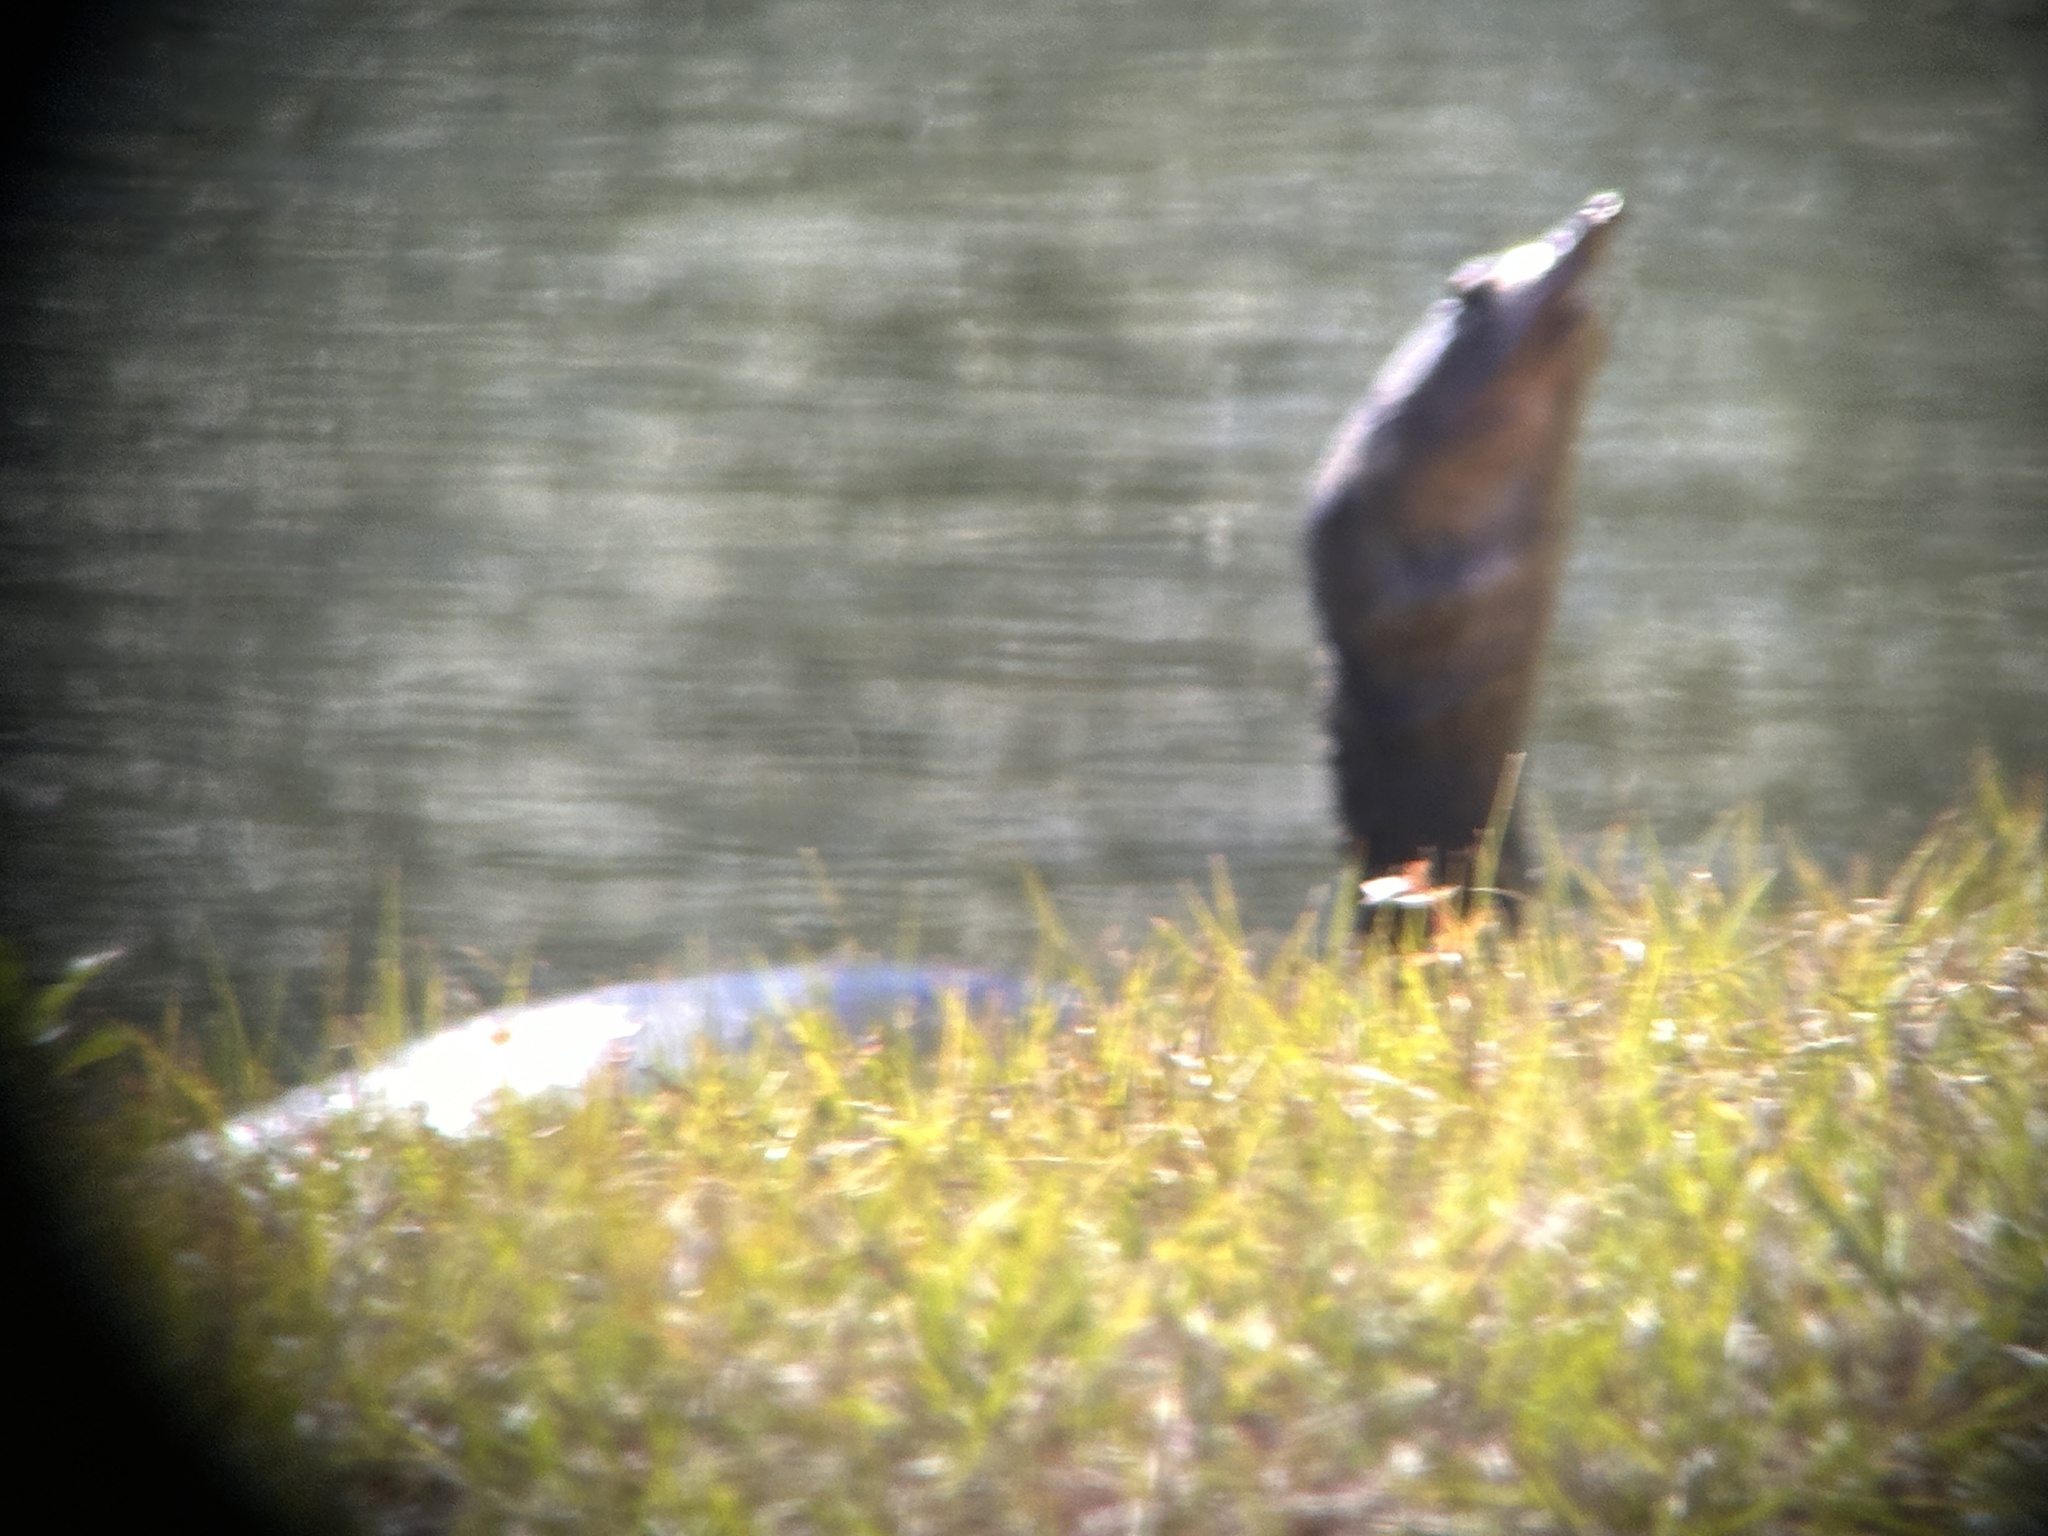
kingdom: Animalia
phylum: Chordata
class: Testudines
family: Trionychidae
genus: Apalone
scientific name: Apalone ferox
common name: Florida softshell turtle
